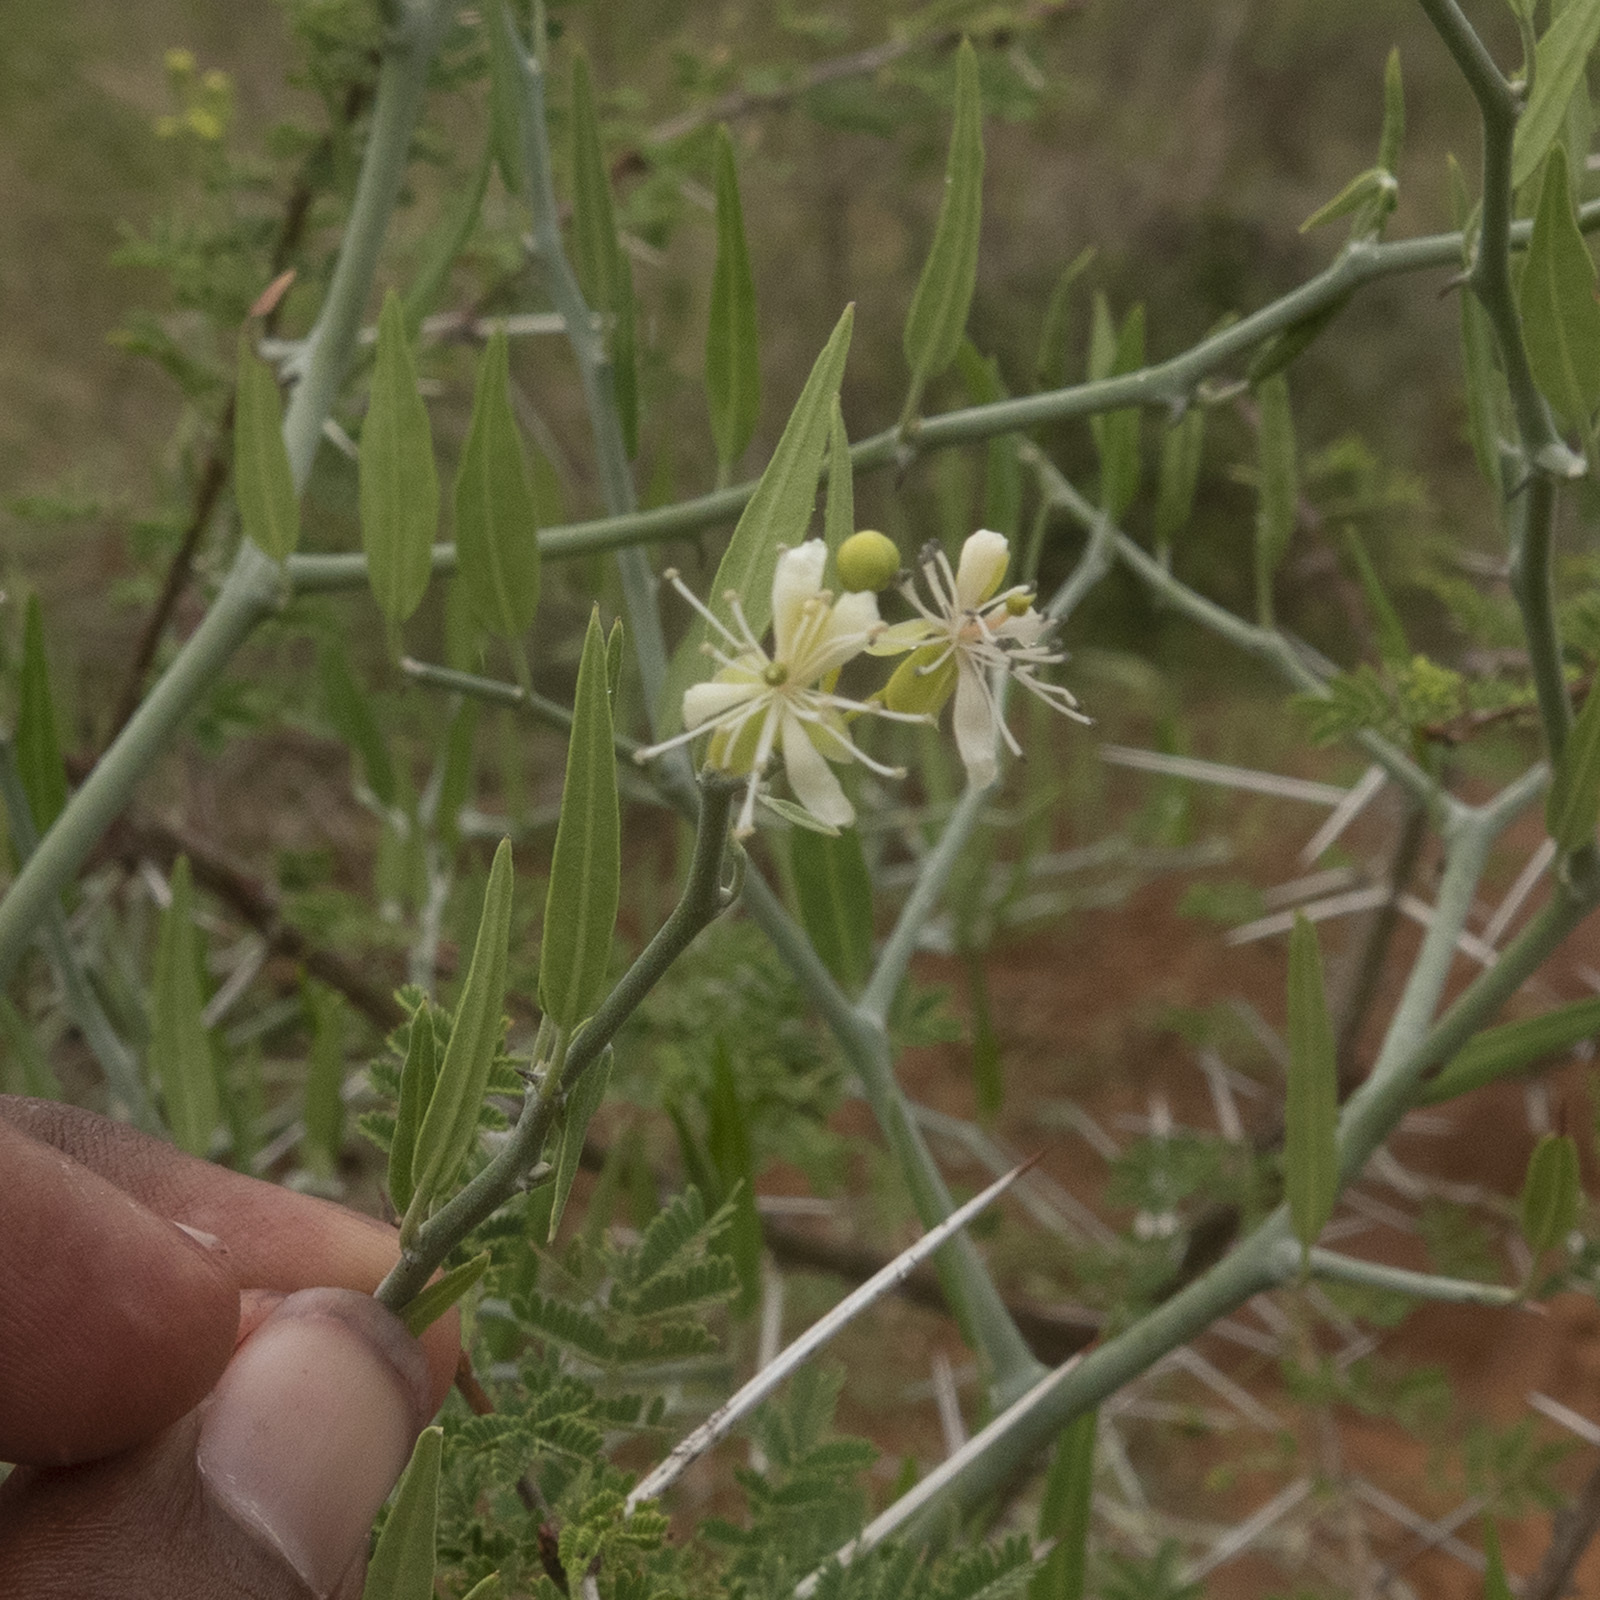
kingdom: Plantae
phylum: Tracheophyta
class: Magnoliopsida
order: Brassicales
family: Capparaceae
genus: Capparis
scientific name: Capparis sepiaria
